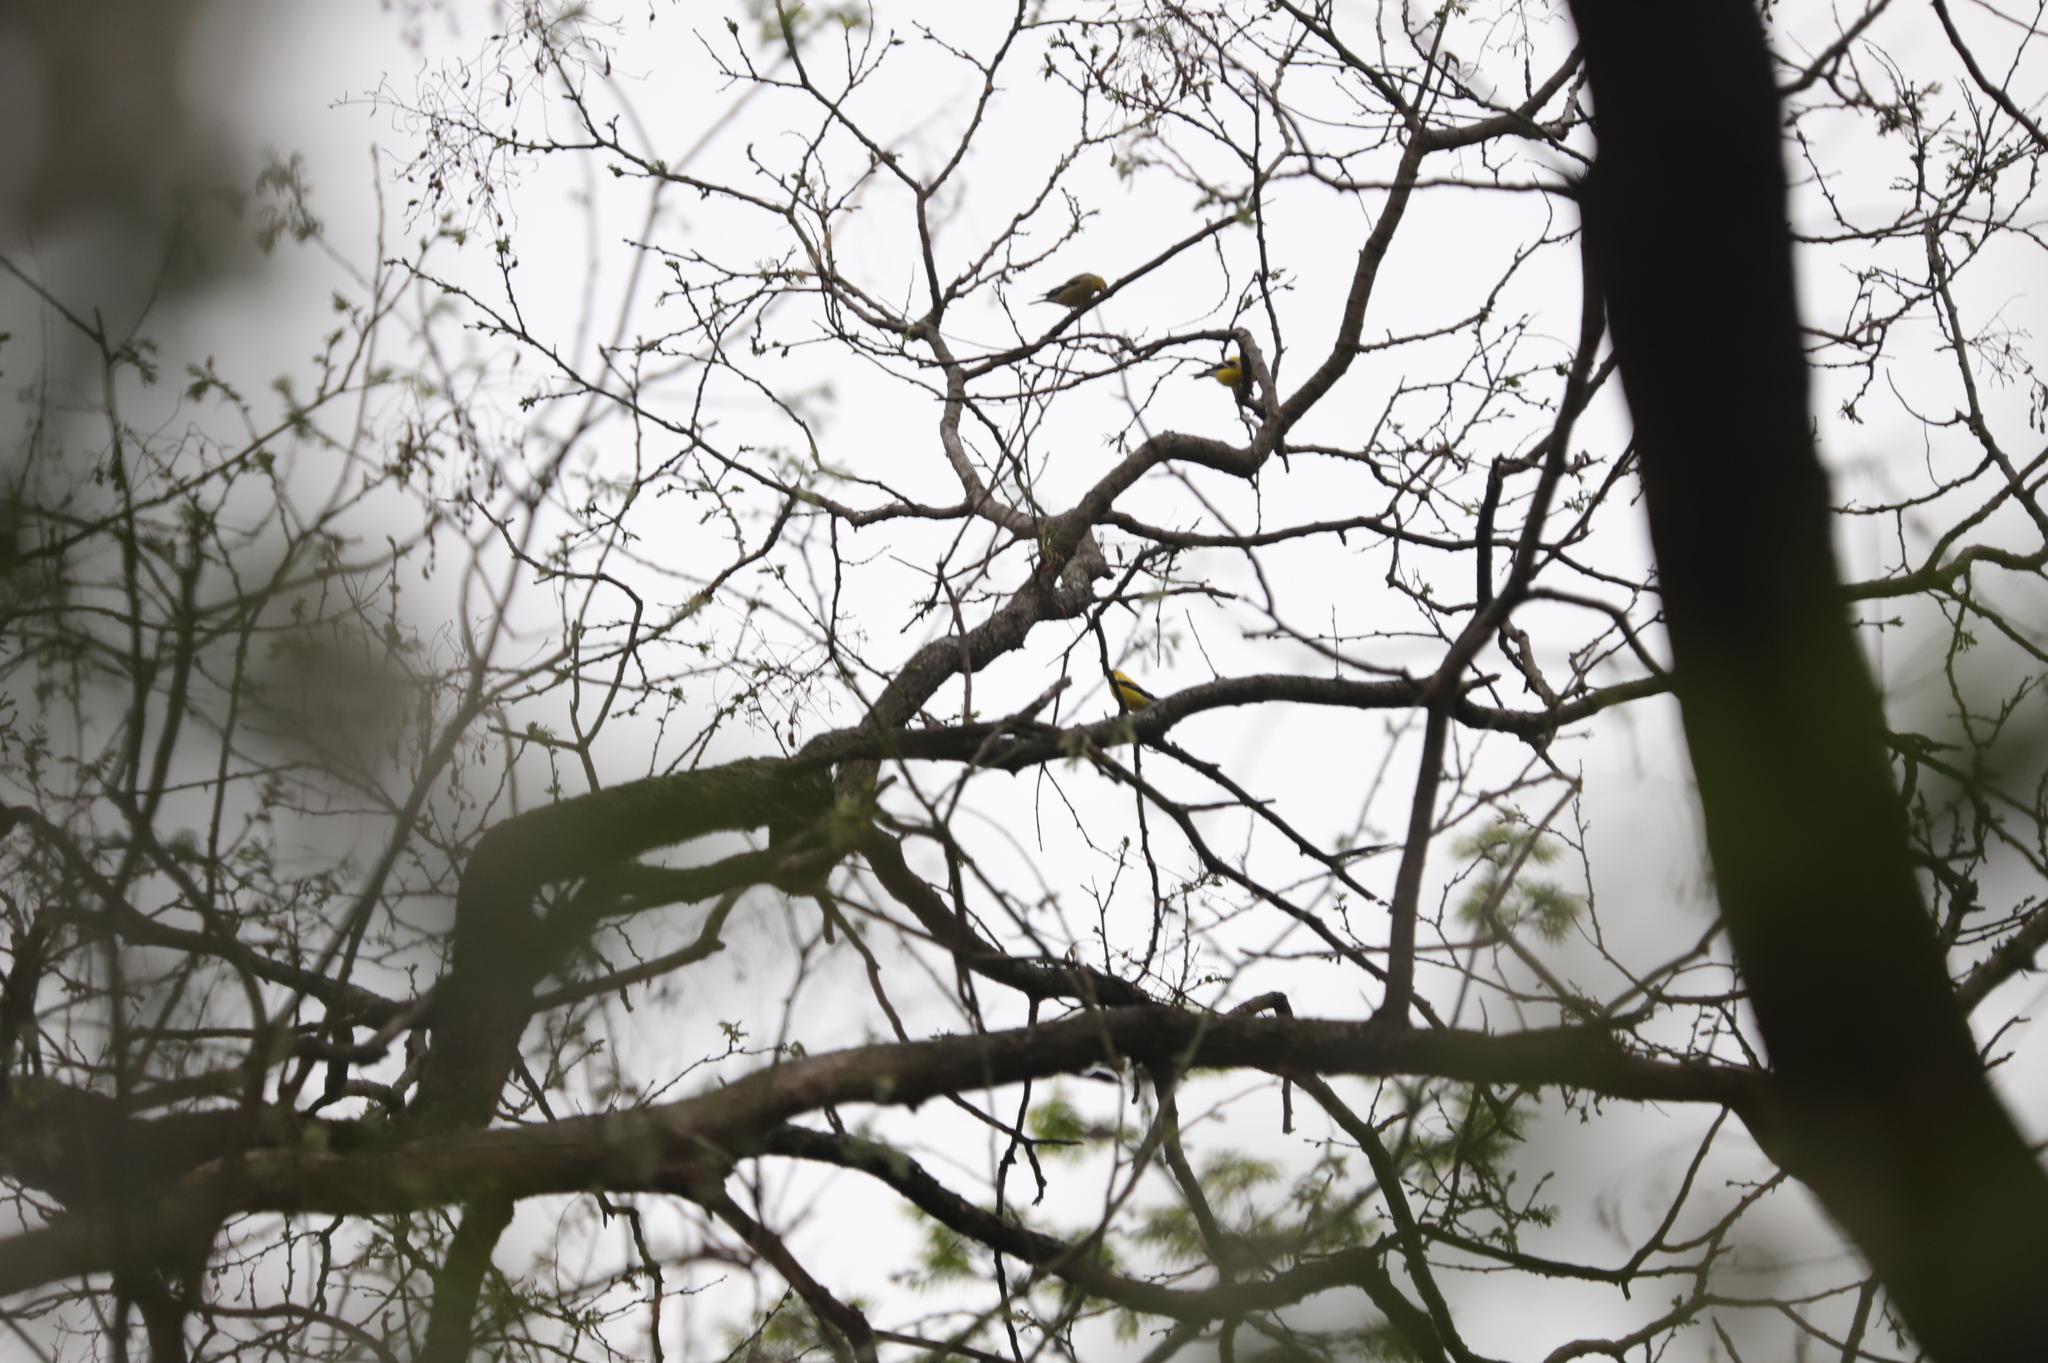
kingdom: Animalia
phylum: Chordata
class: Aves
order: Passeriformes
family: Fringillidae
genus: Spinus
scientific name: Spinus tristis
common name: American goldfinch
